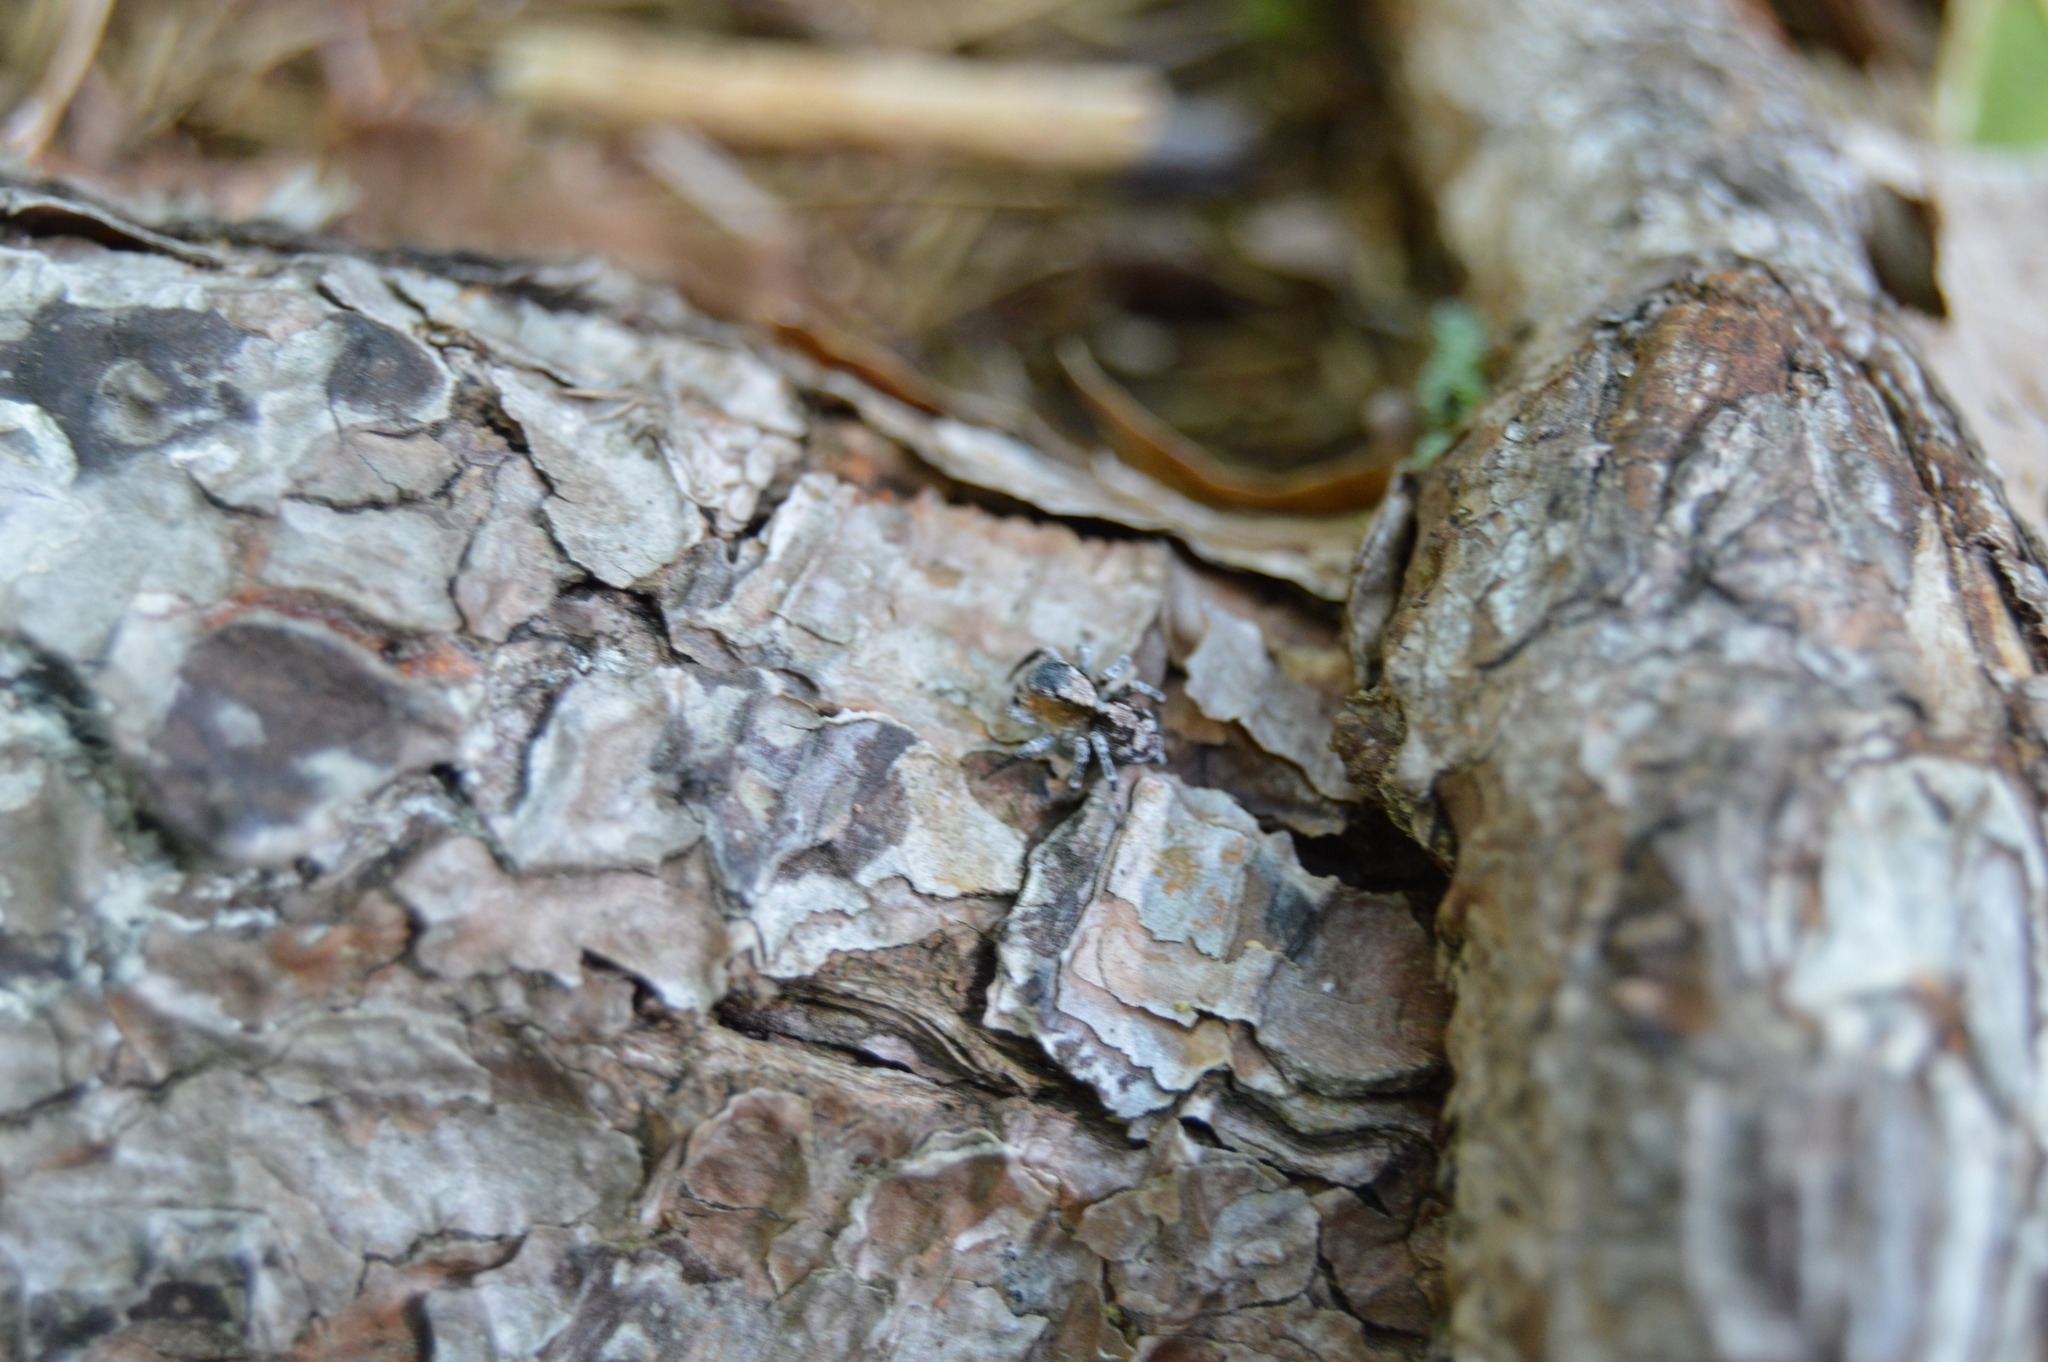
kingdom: Animalia
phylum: Arthropoda
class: Arachnida
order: Araneae
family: Salticidae
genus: Naphrys
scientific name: Naphrys pulex
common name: Flea jumping spider
